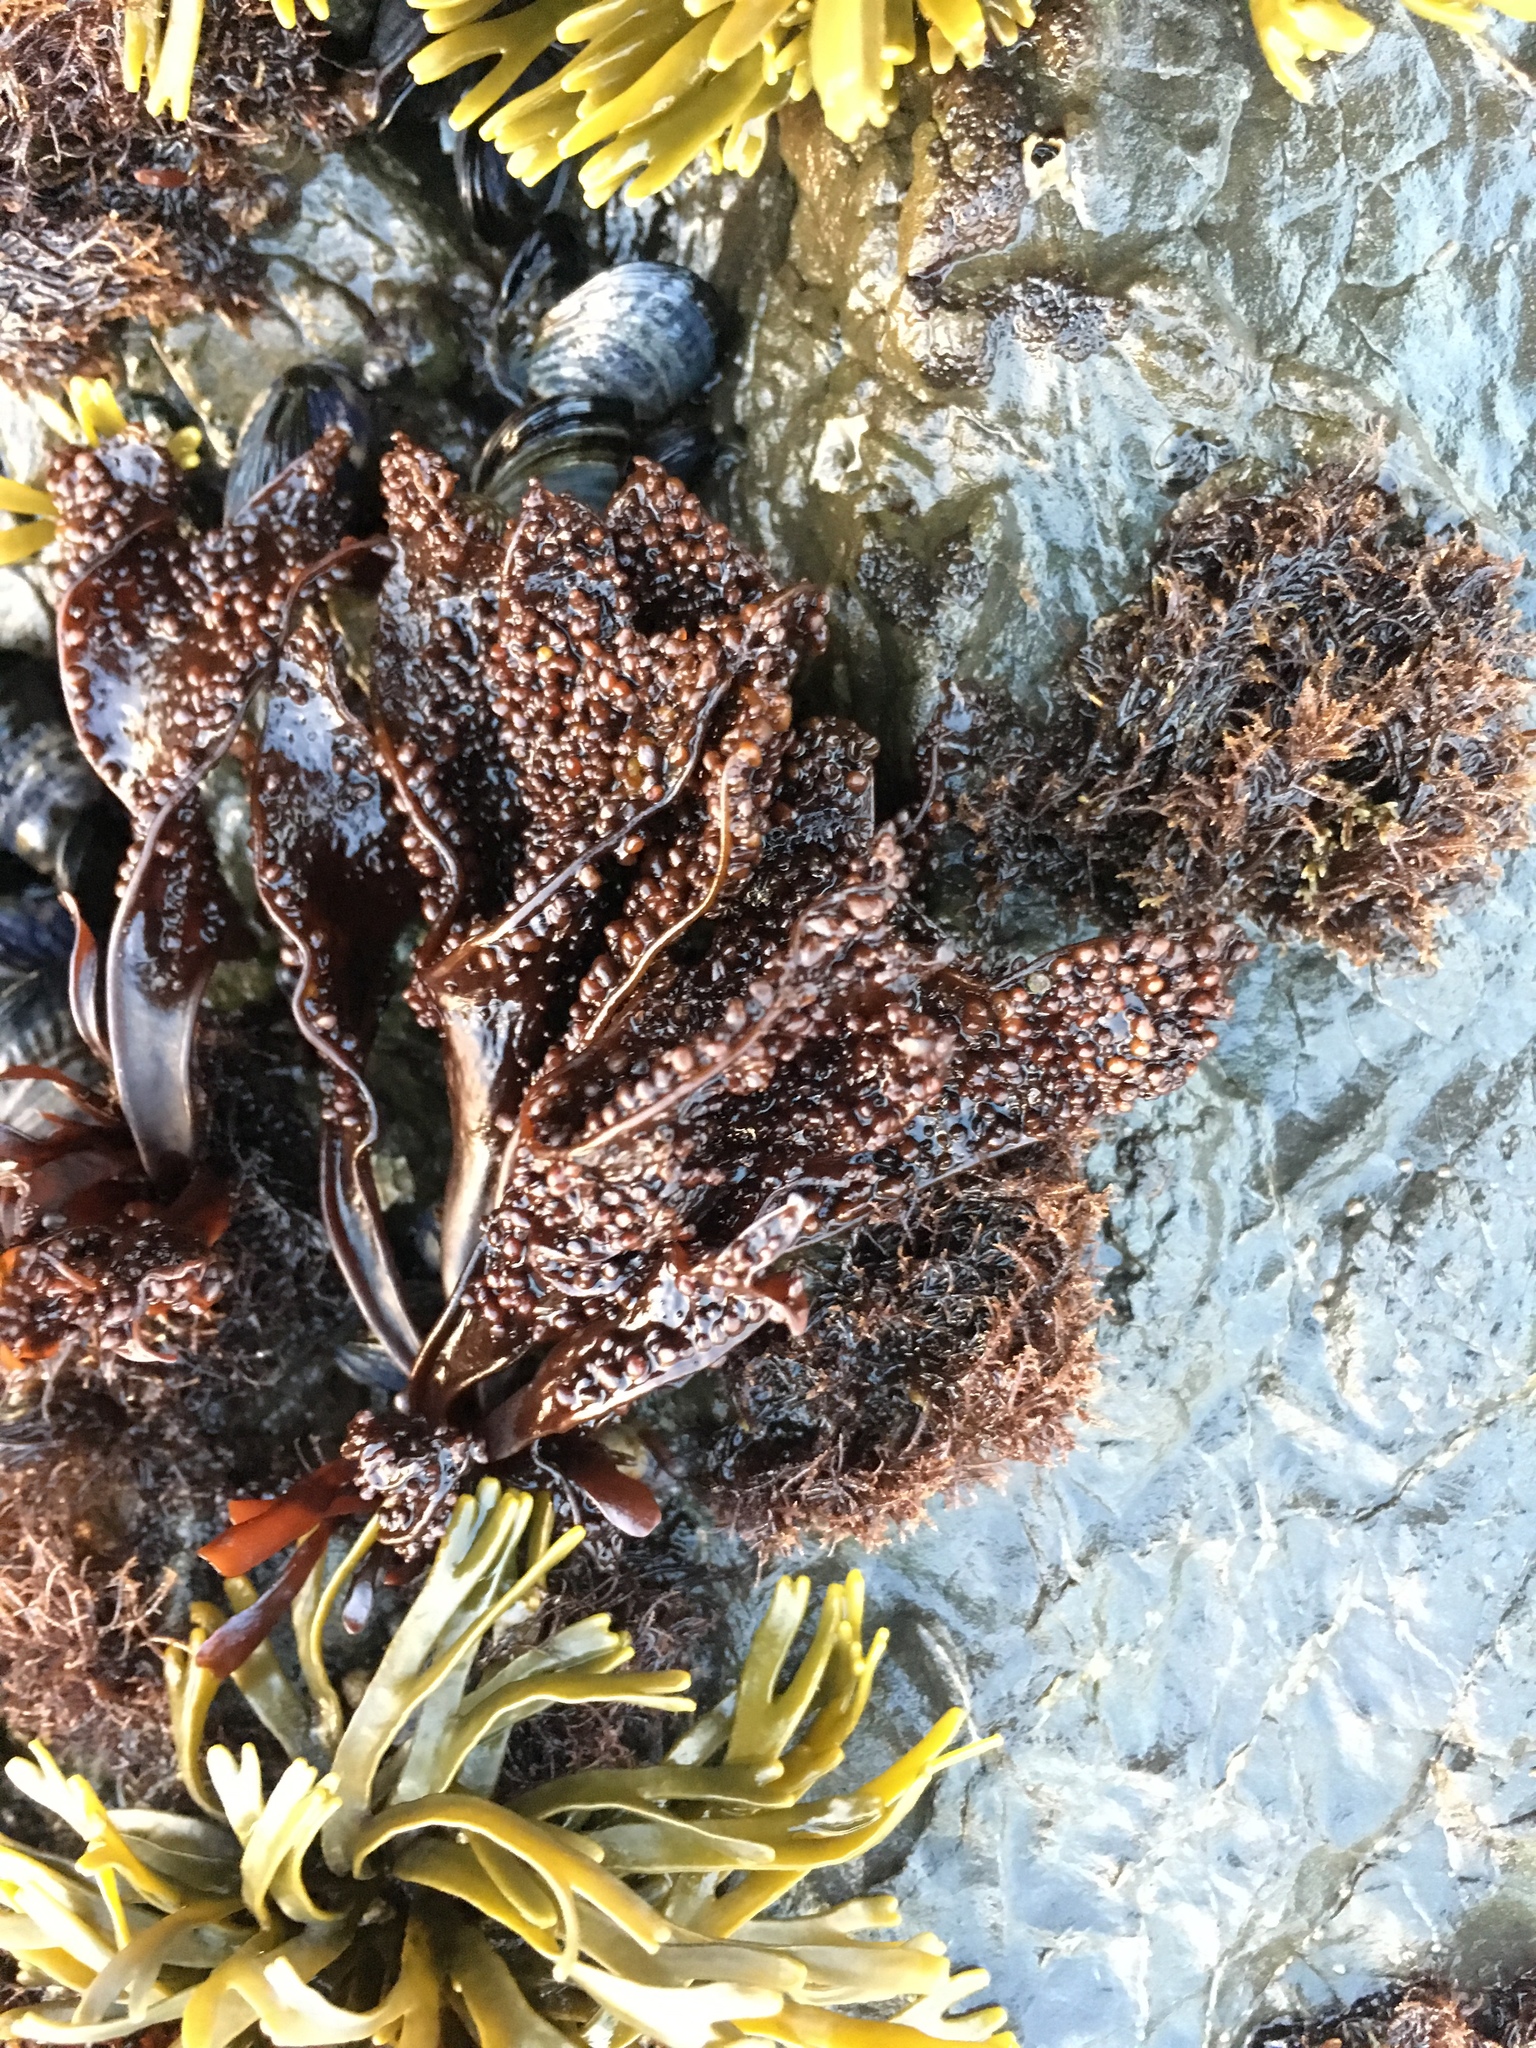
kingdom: Plantae
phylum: Rhodophyta
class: Florideophyceae
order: Gigartinales
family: Phyllophoraceae
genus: Mastocarpus
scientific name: Mastocarpus papillatus
